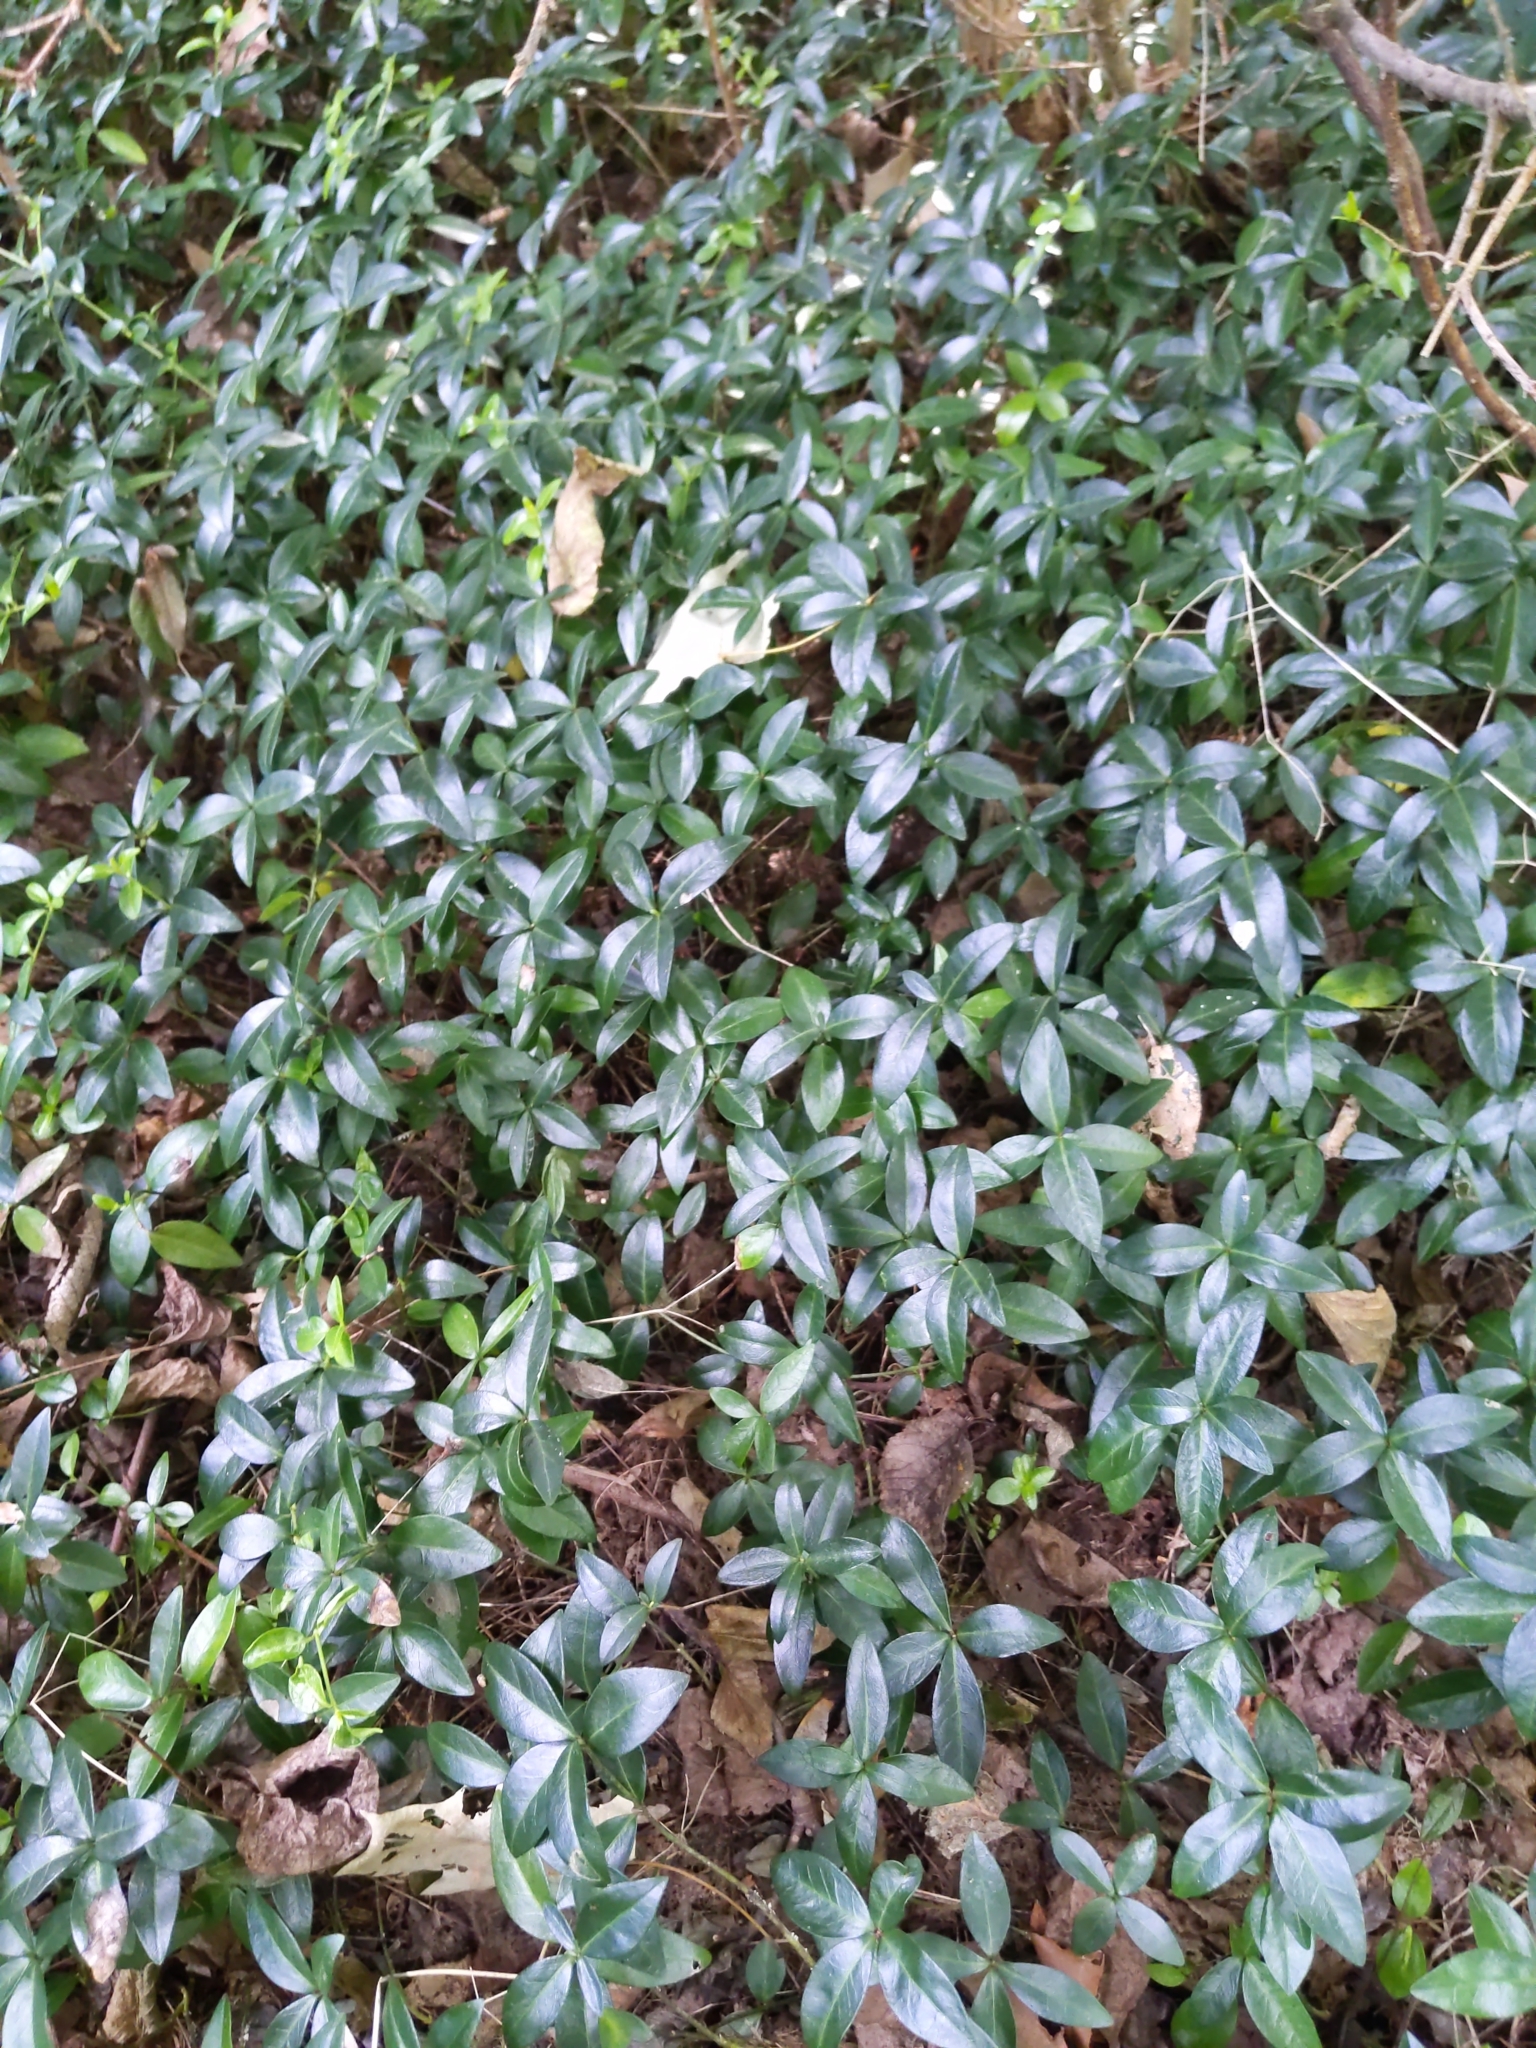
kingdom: Plantae
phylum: Tracheophyta
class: Magnoliopsida
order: Gentianales
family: Apocynaceae
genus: Vinca
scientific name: Vinca minor
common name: Lesser periwinkle
